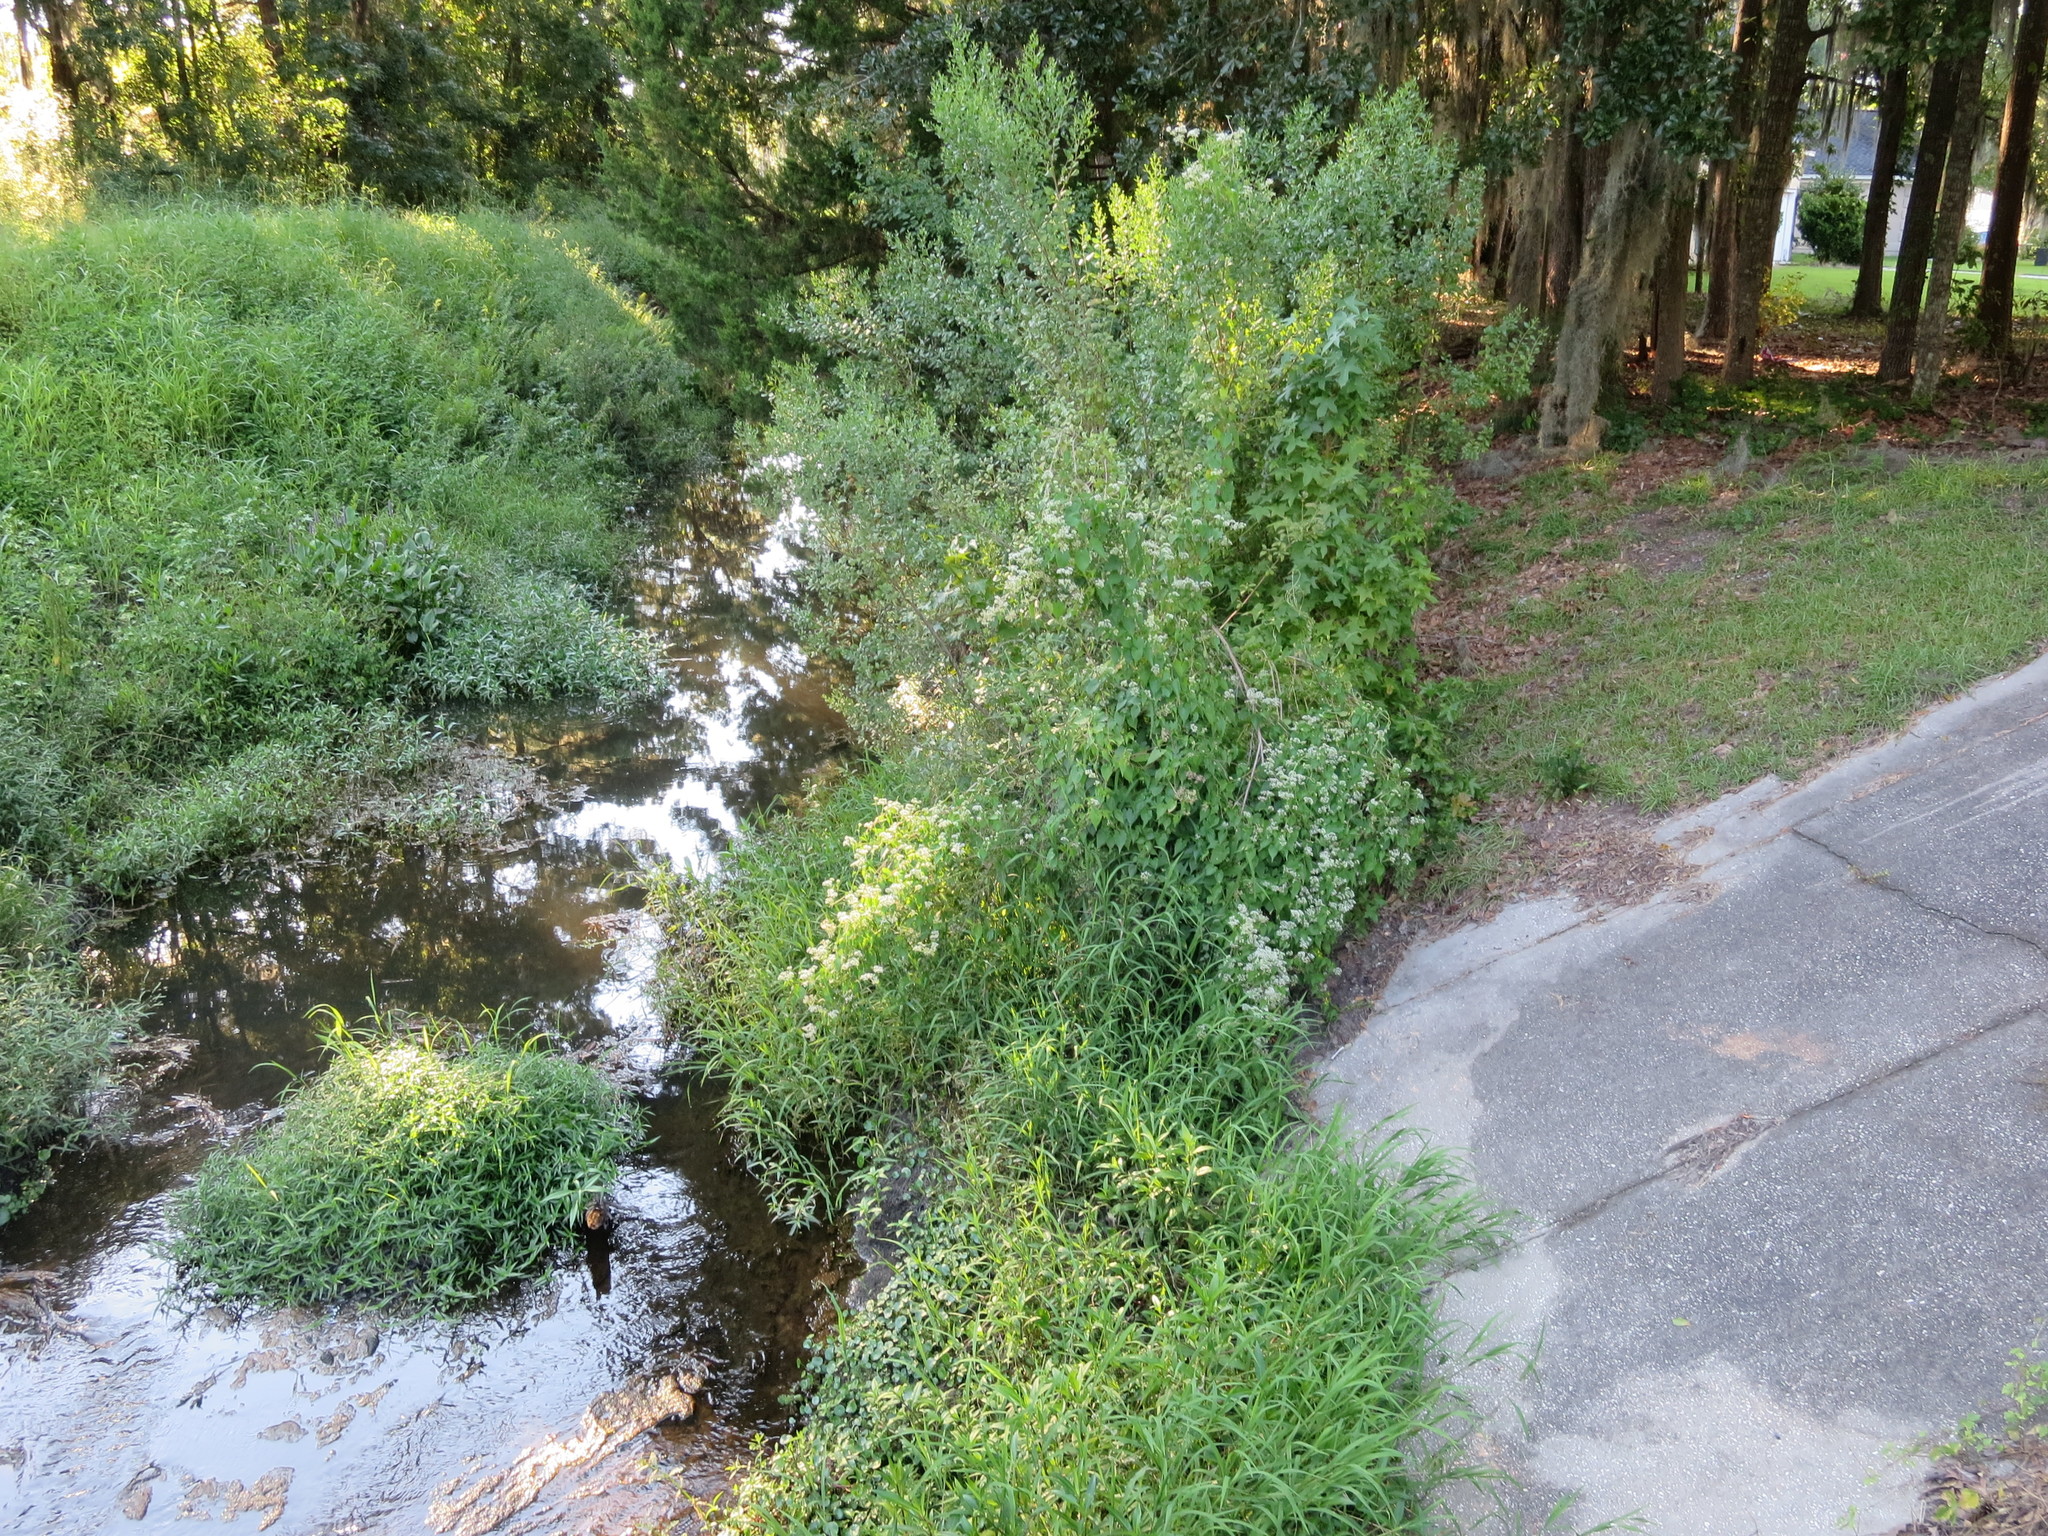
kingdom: Plantae
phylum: Tracheophyta
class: Magnoliopsida
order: Asterales
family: Asteraceae
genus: Mikania
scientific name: Mikania scandens
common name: Climbing hempvine
